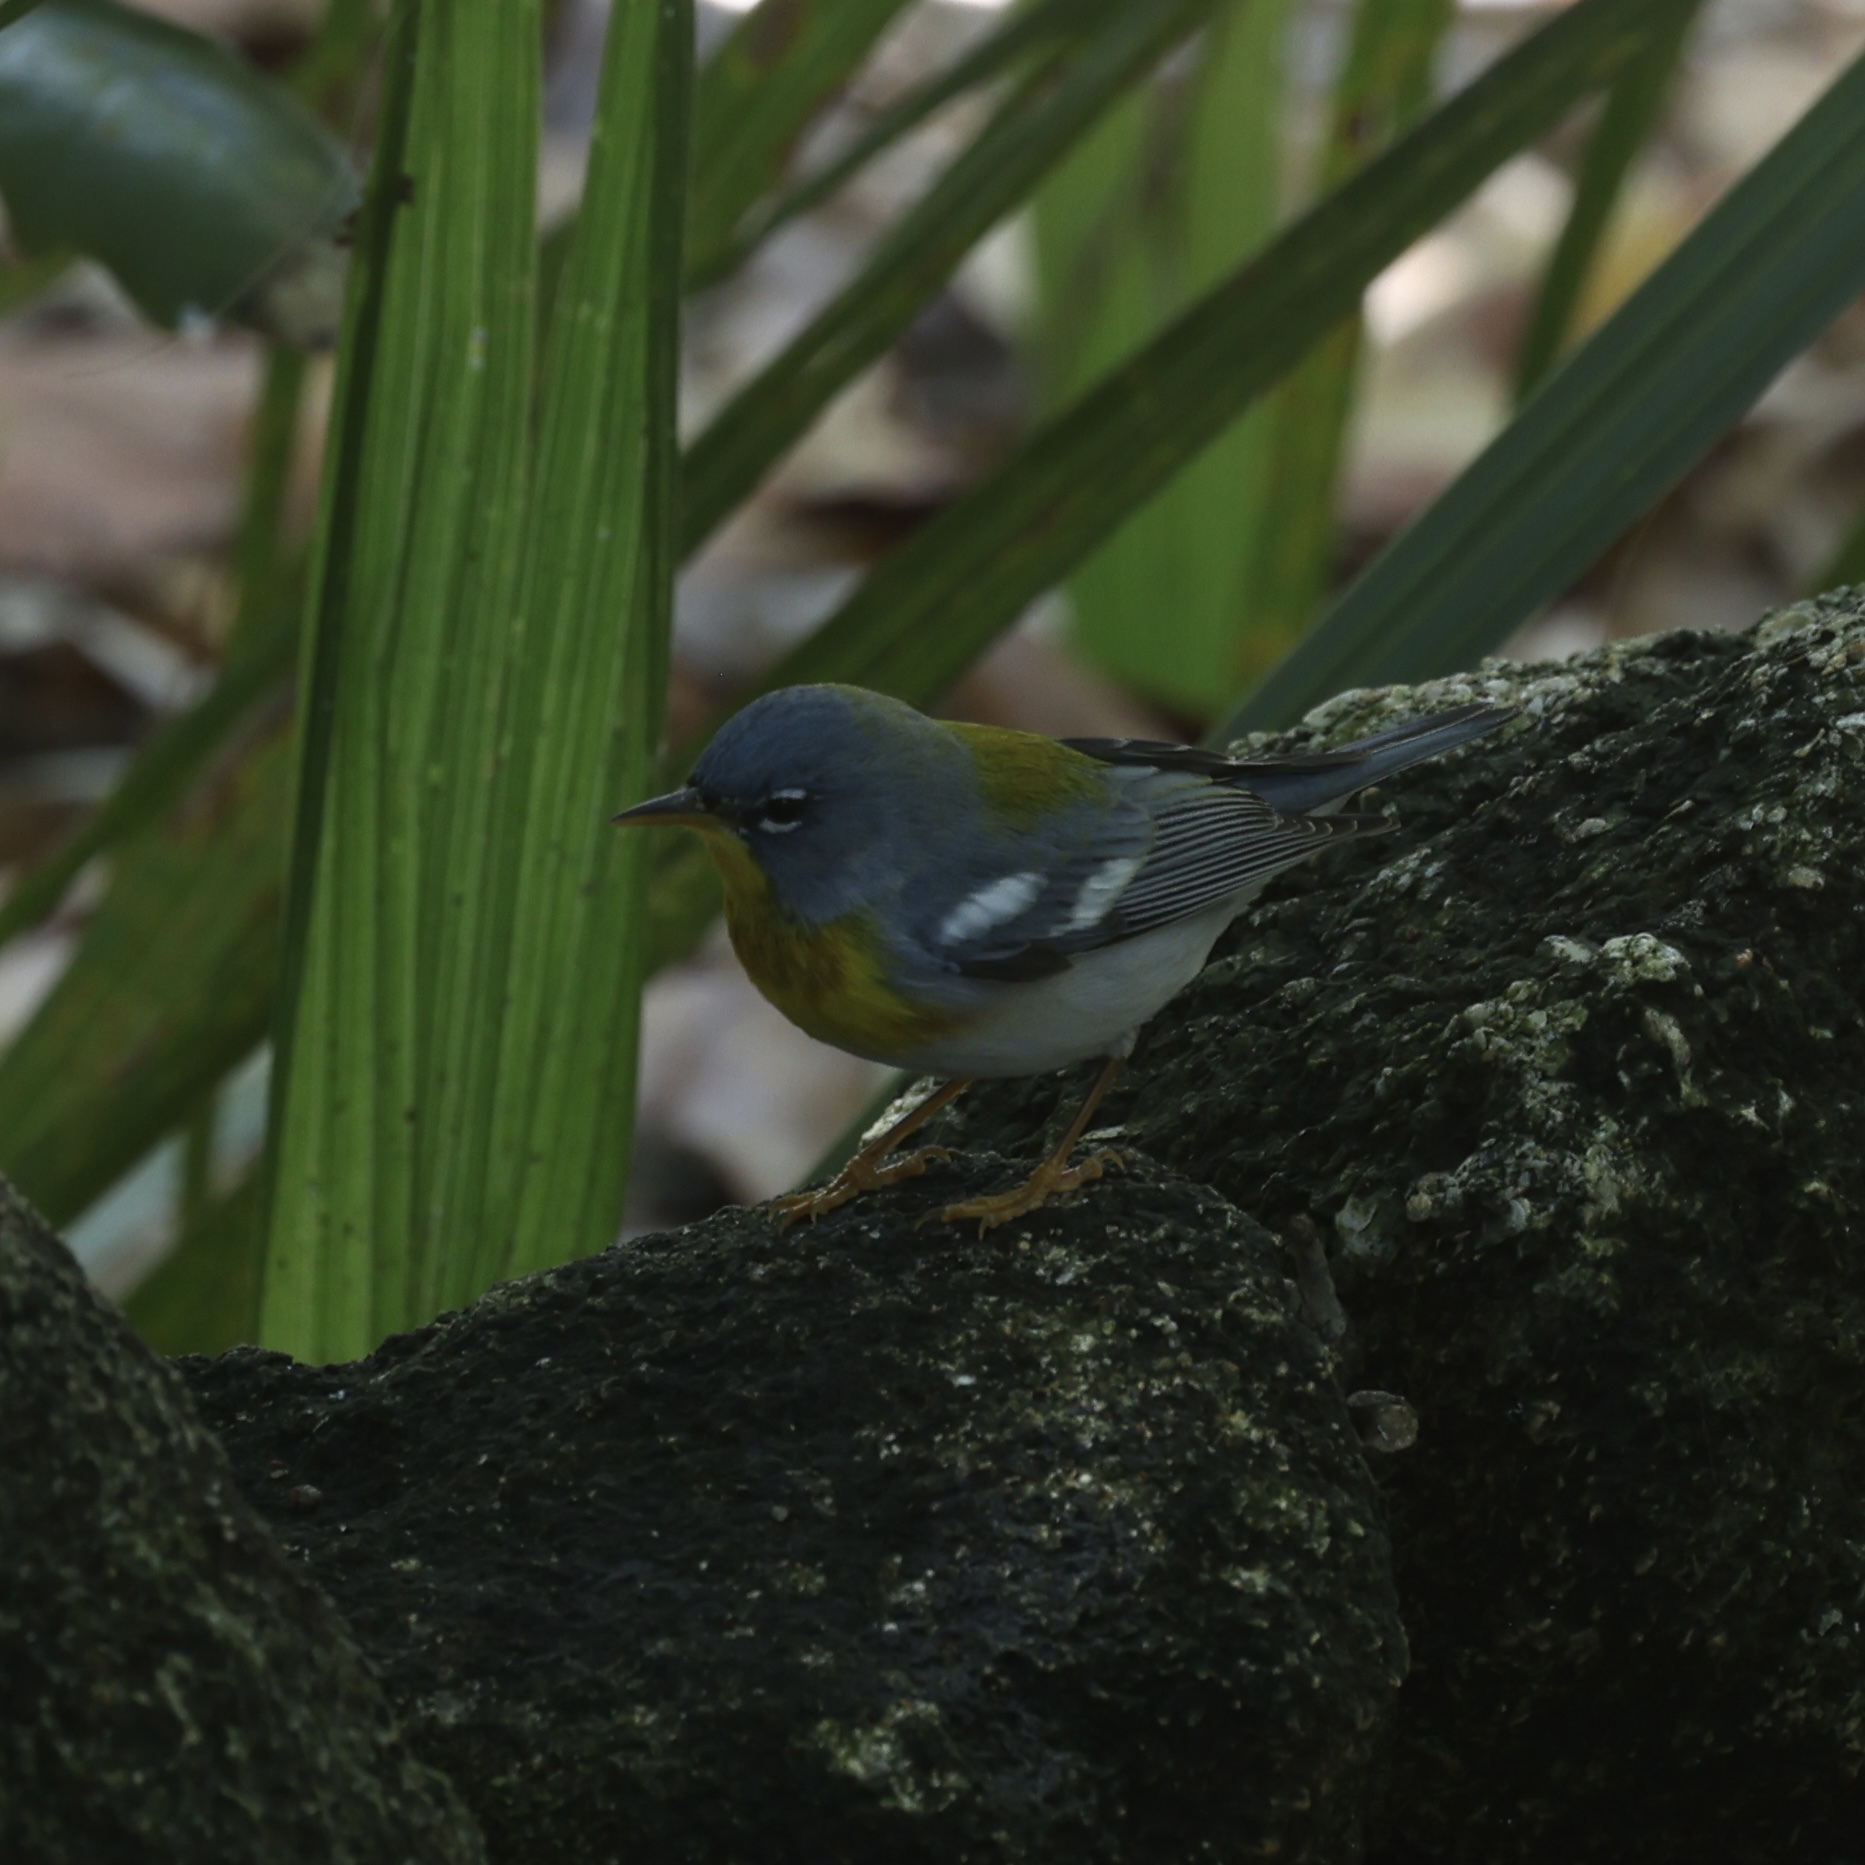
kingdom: Animalia
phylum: Chordata
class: Aves
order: Passeriformes
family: Parulidae
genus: Setophaga
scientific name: Setophaga americana
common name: Northern parula
